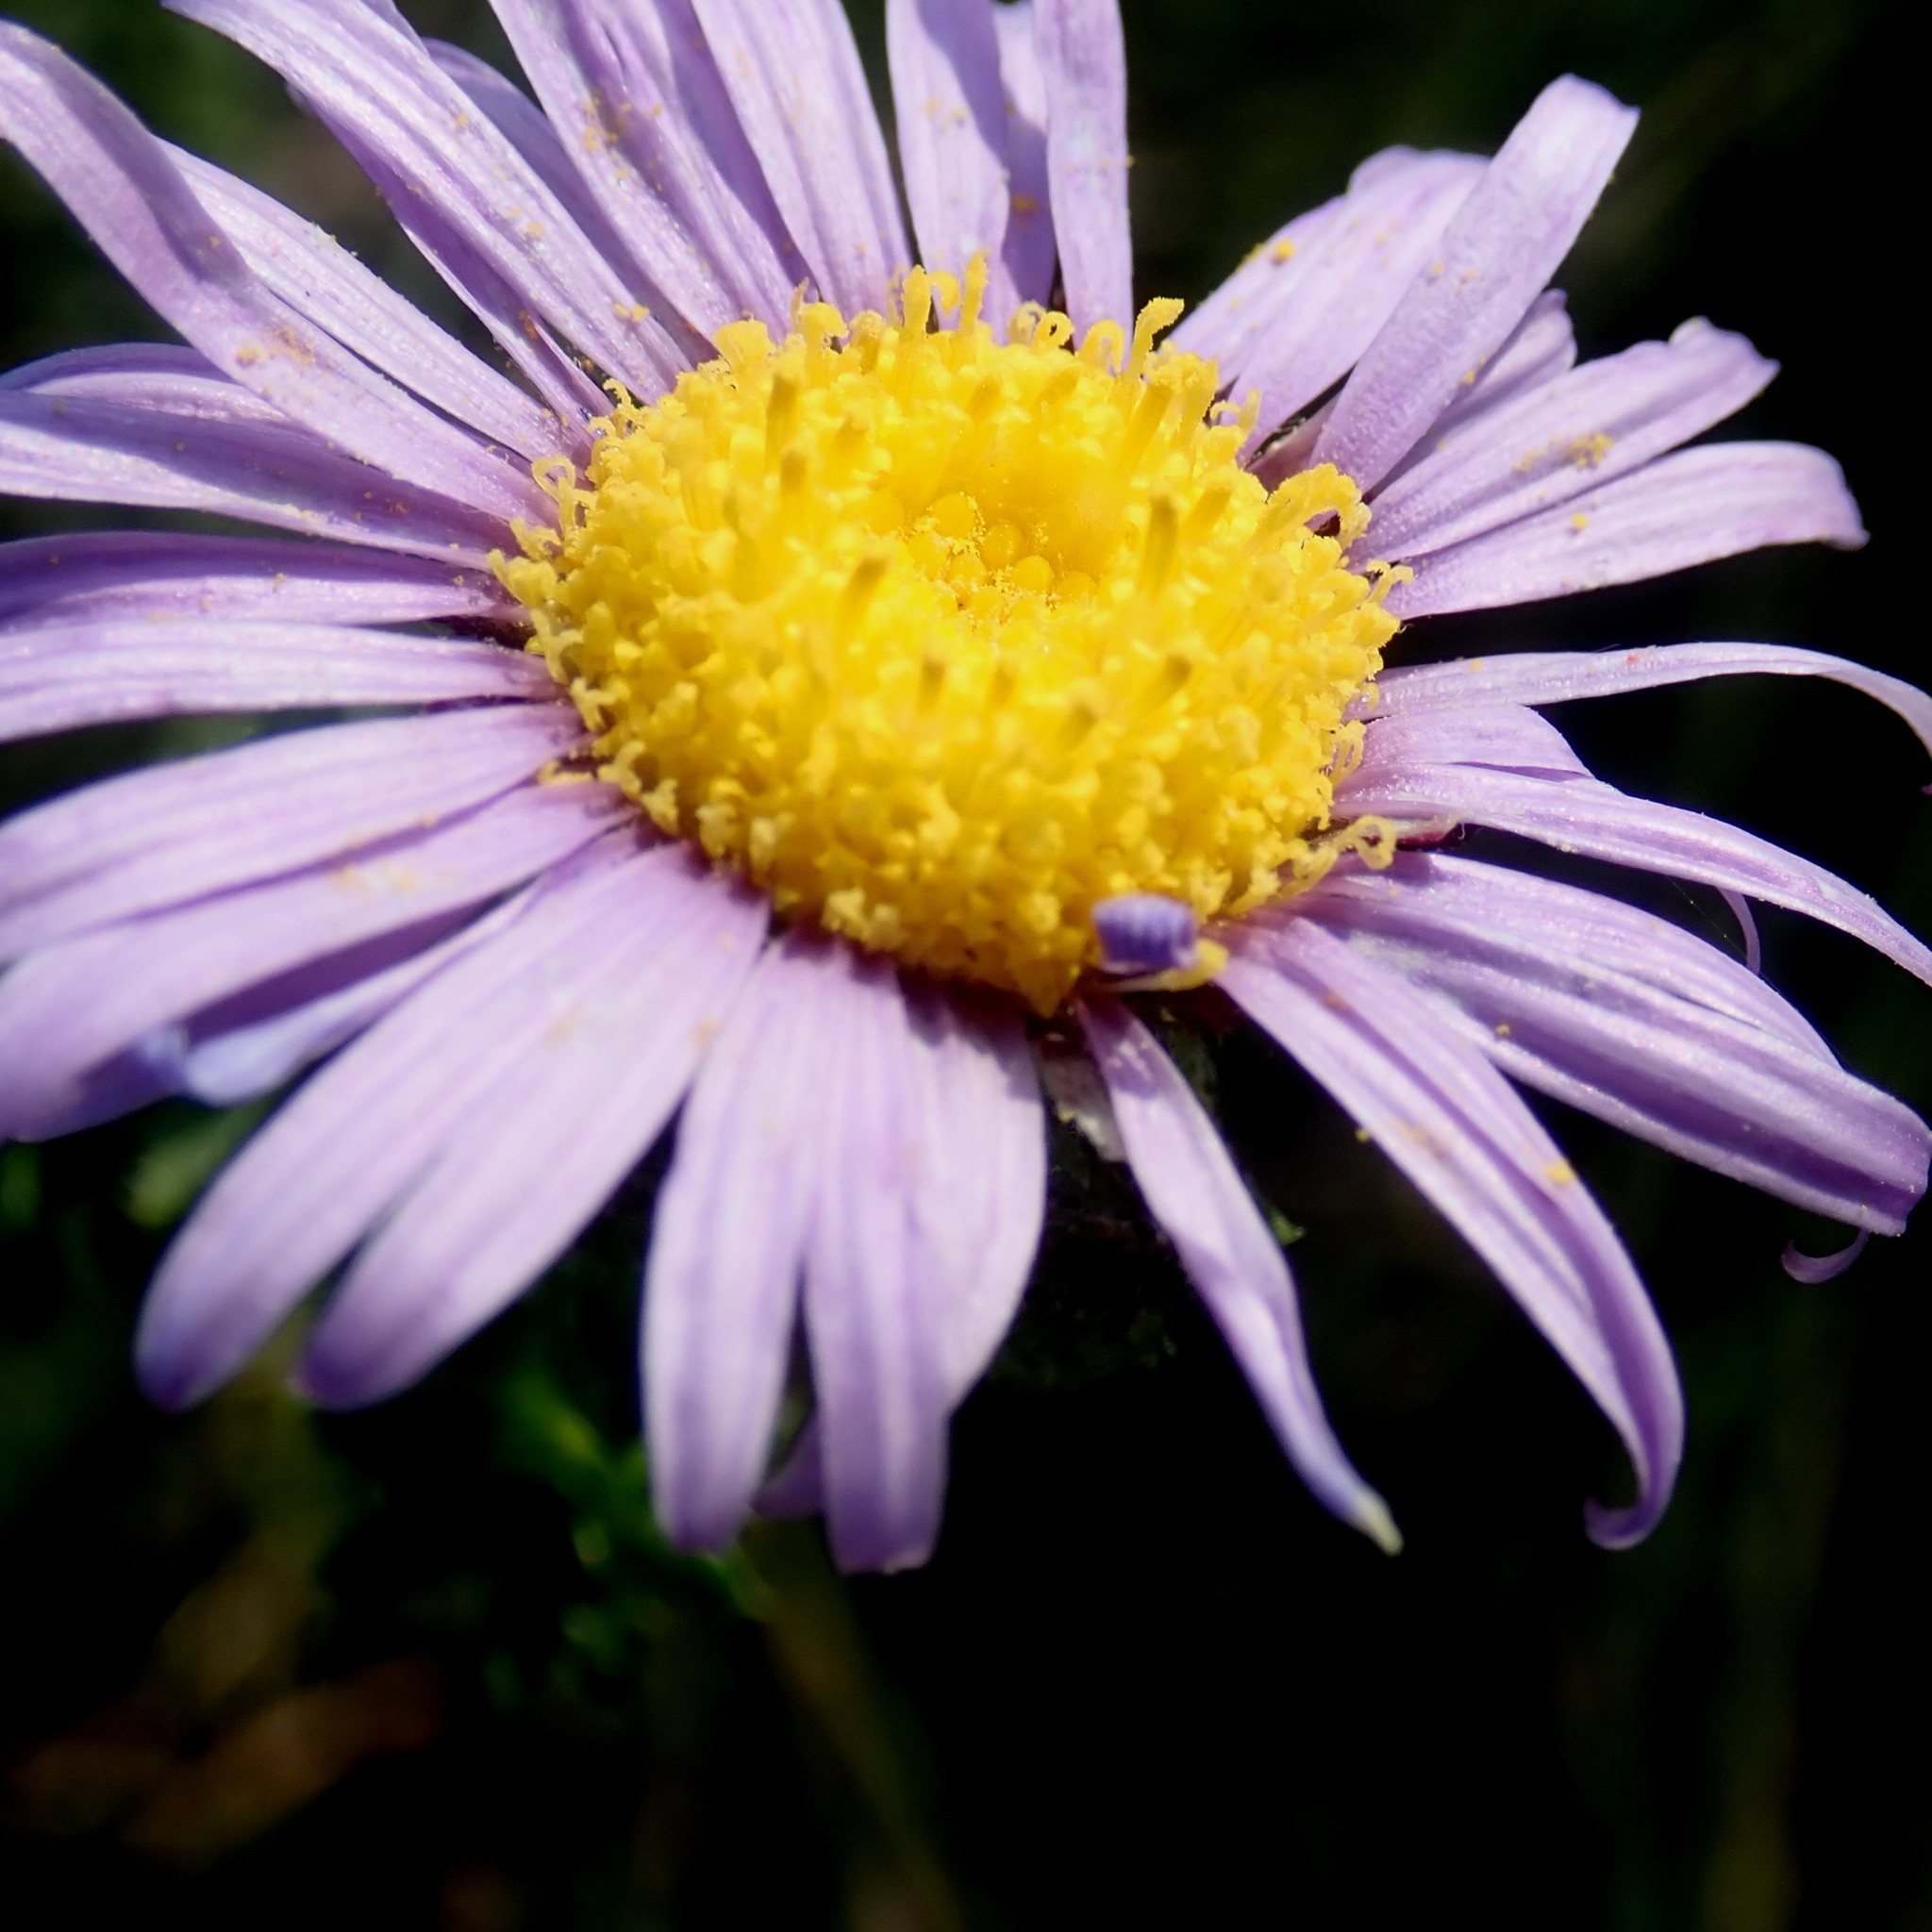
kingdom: Plantae
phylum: Tracheophyta
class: Magnoliopsida
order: Asterales
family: Asteraceae
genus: Felicia
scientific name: Felicia echinata
